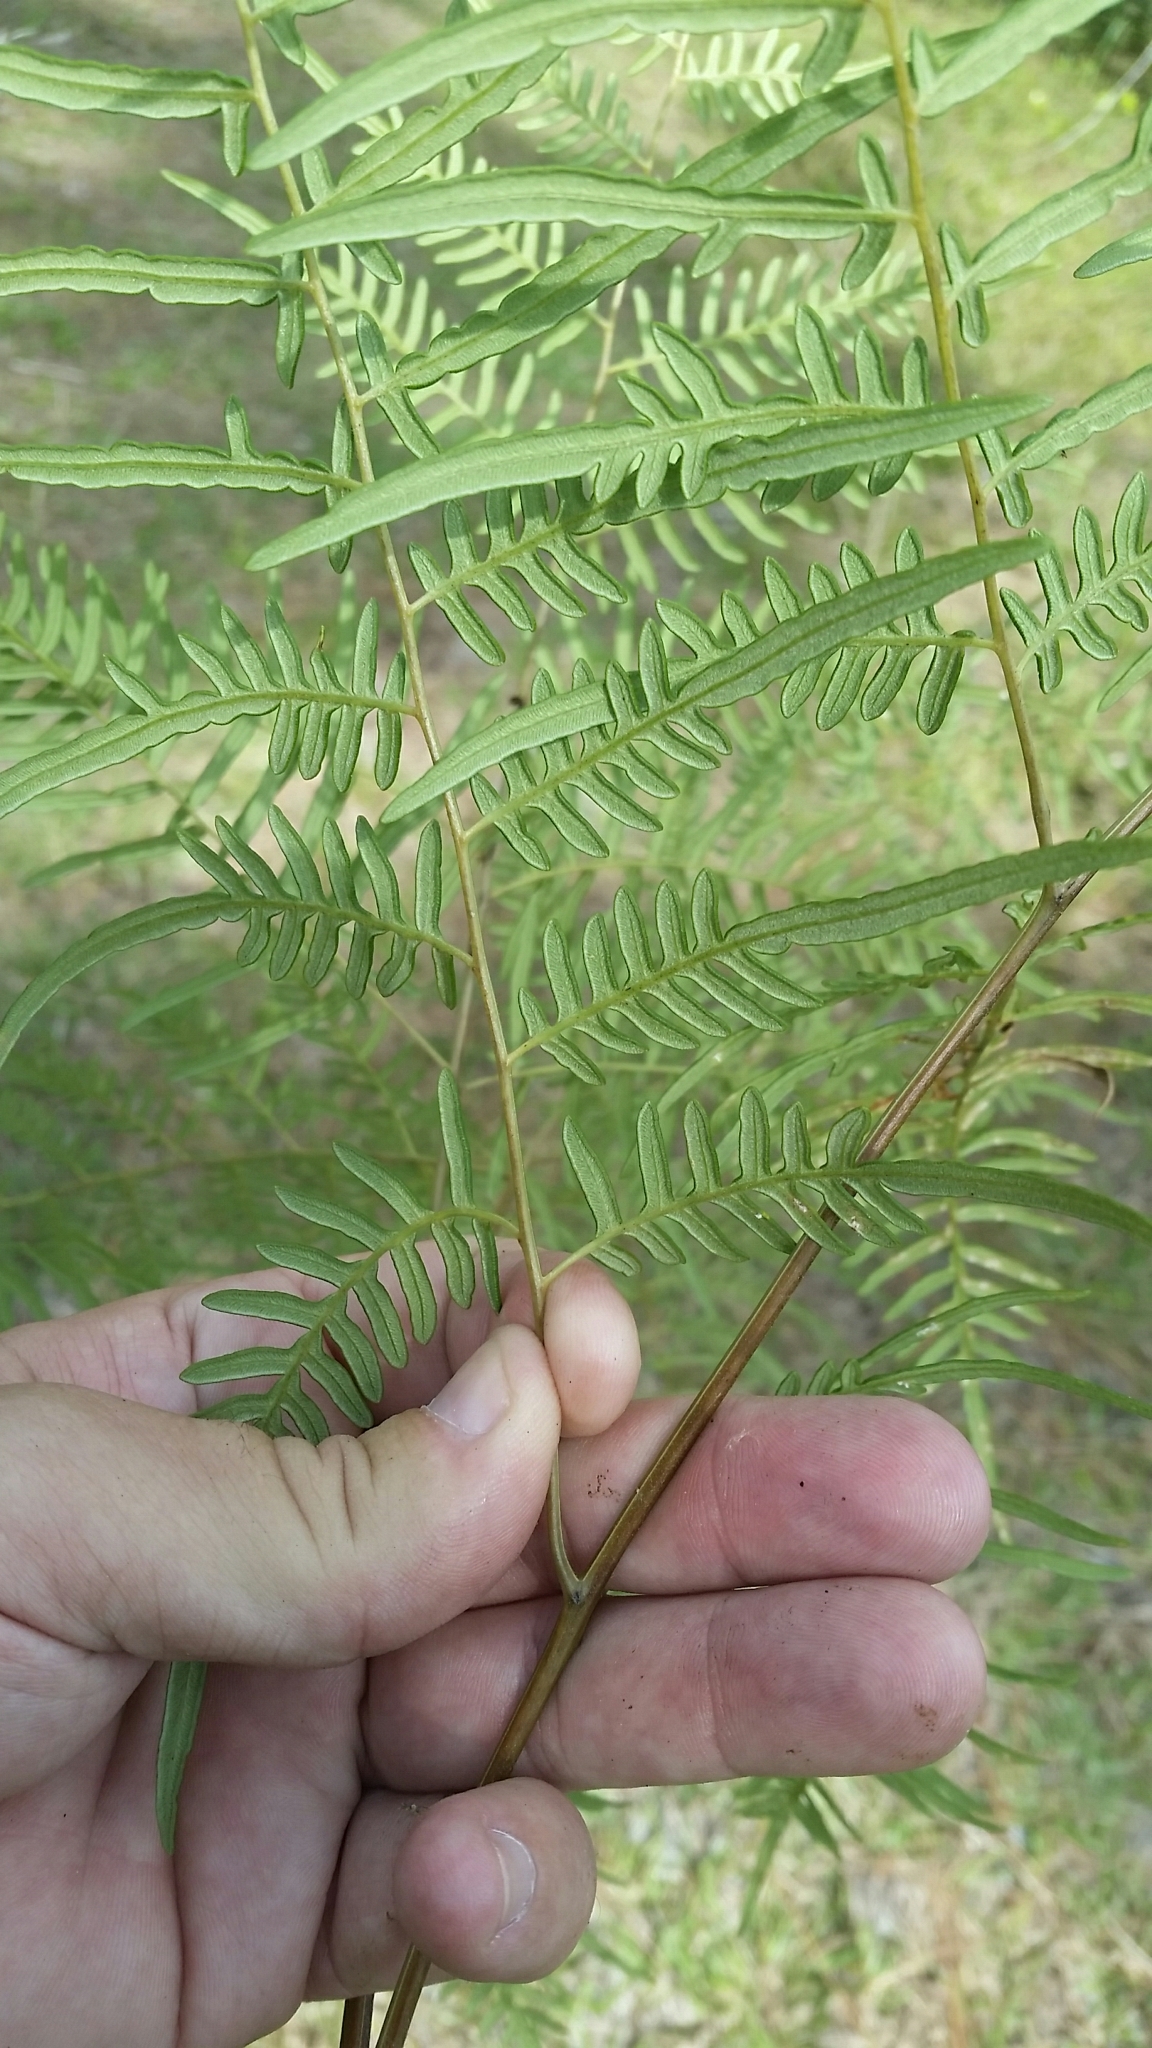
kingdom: Plantae
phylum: Tracheophyta
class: Polypodiopsida
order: Polypodiales
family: Dennstaedtiaceae
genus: Pteridium
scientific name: Pteridium
